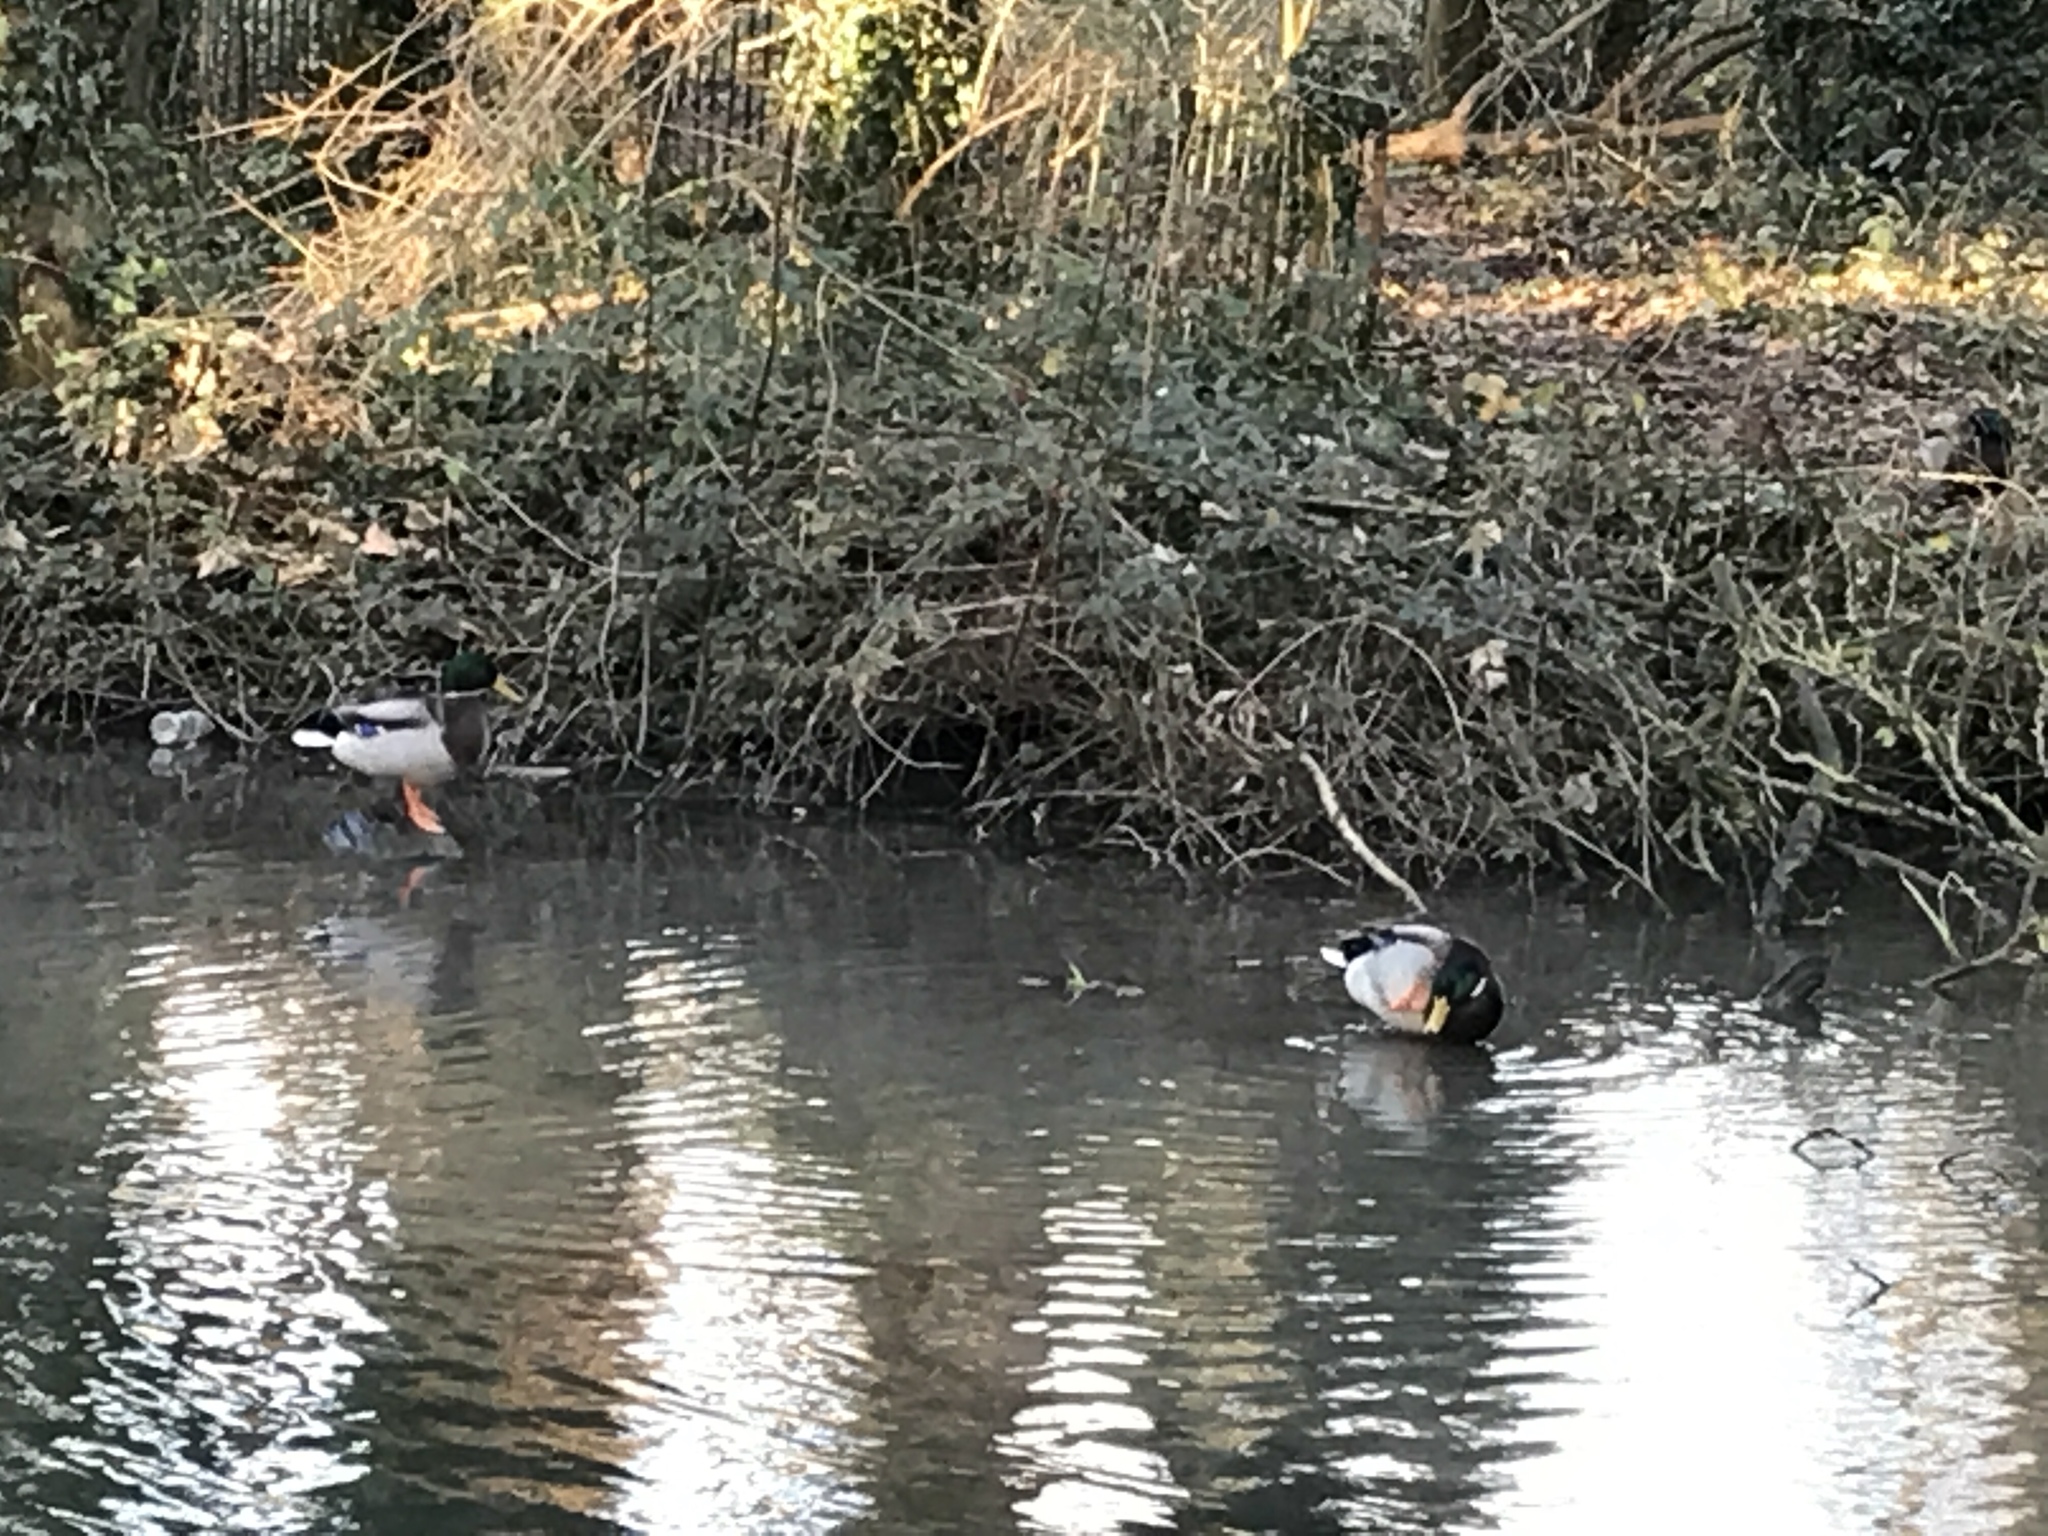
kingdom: Animalia
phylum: Chordata
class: Aves
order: Anseriformes
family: Anatidae
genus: Anas
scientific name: Anas platyrhynchos
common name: Mallard
